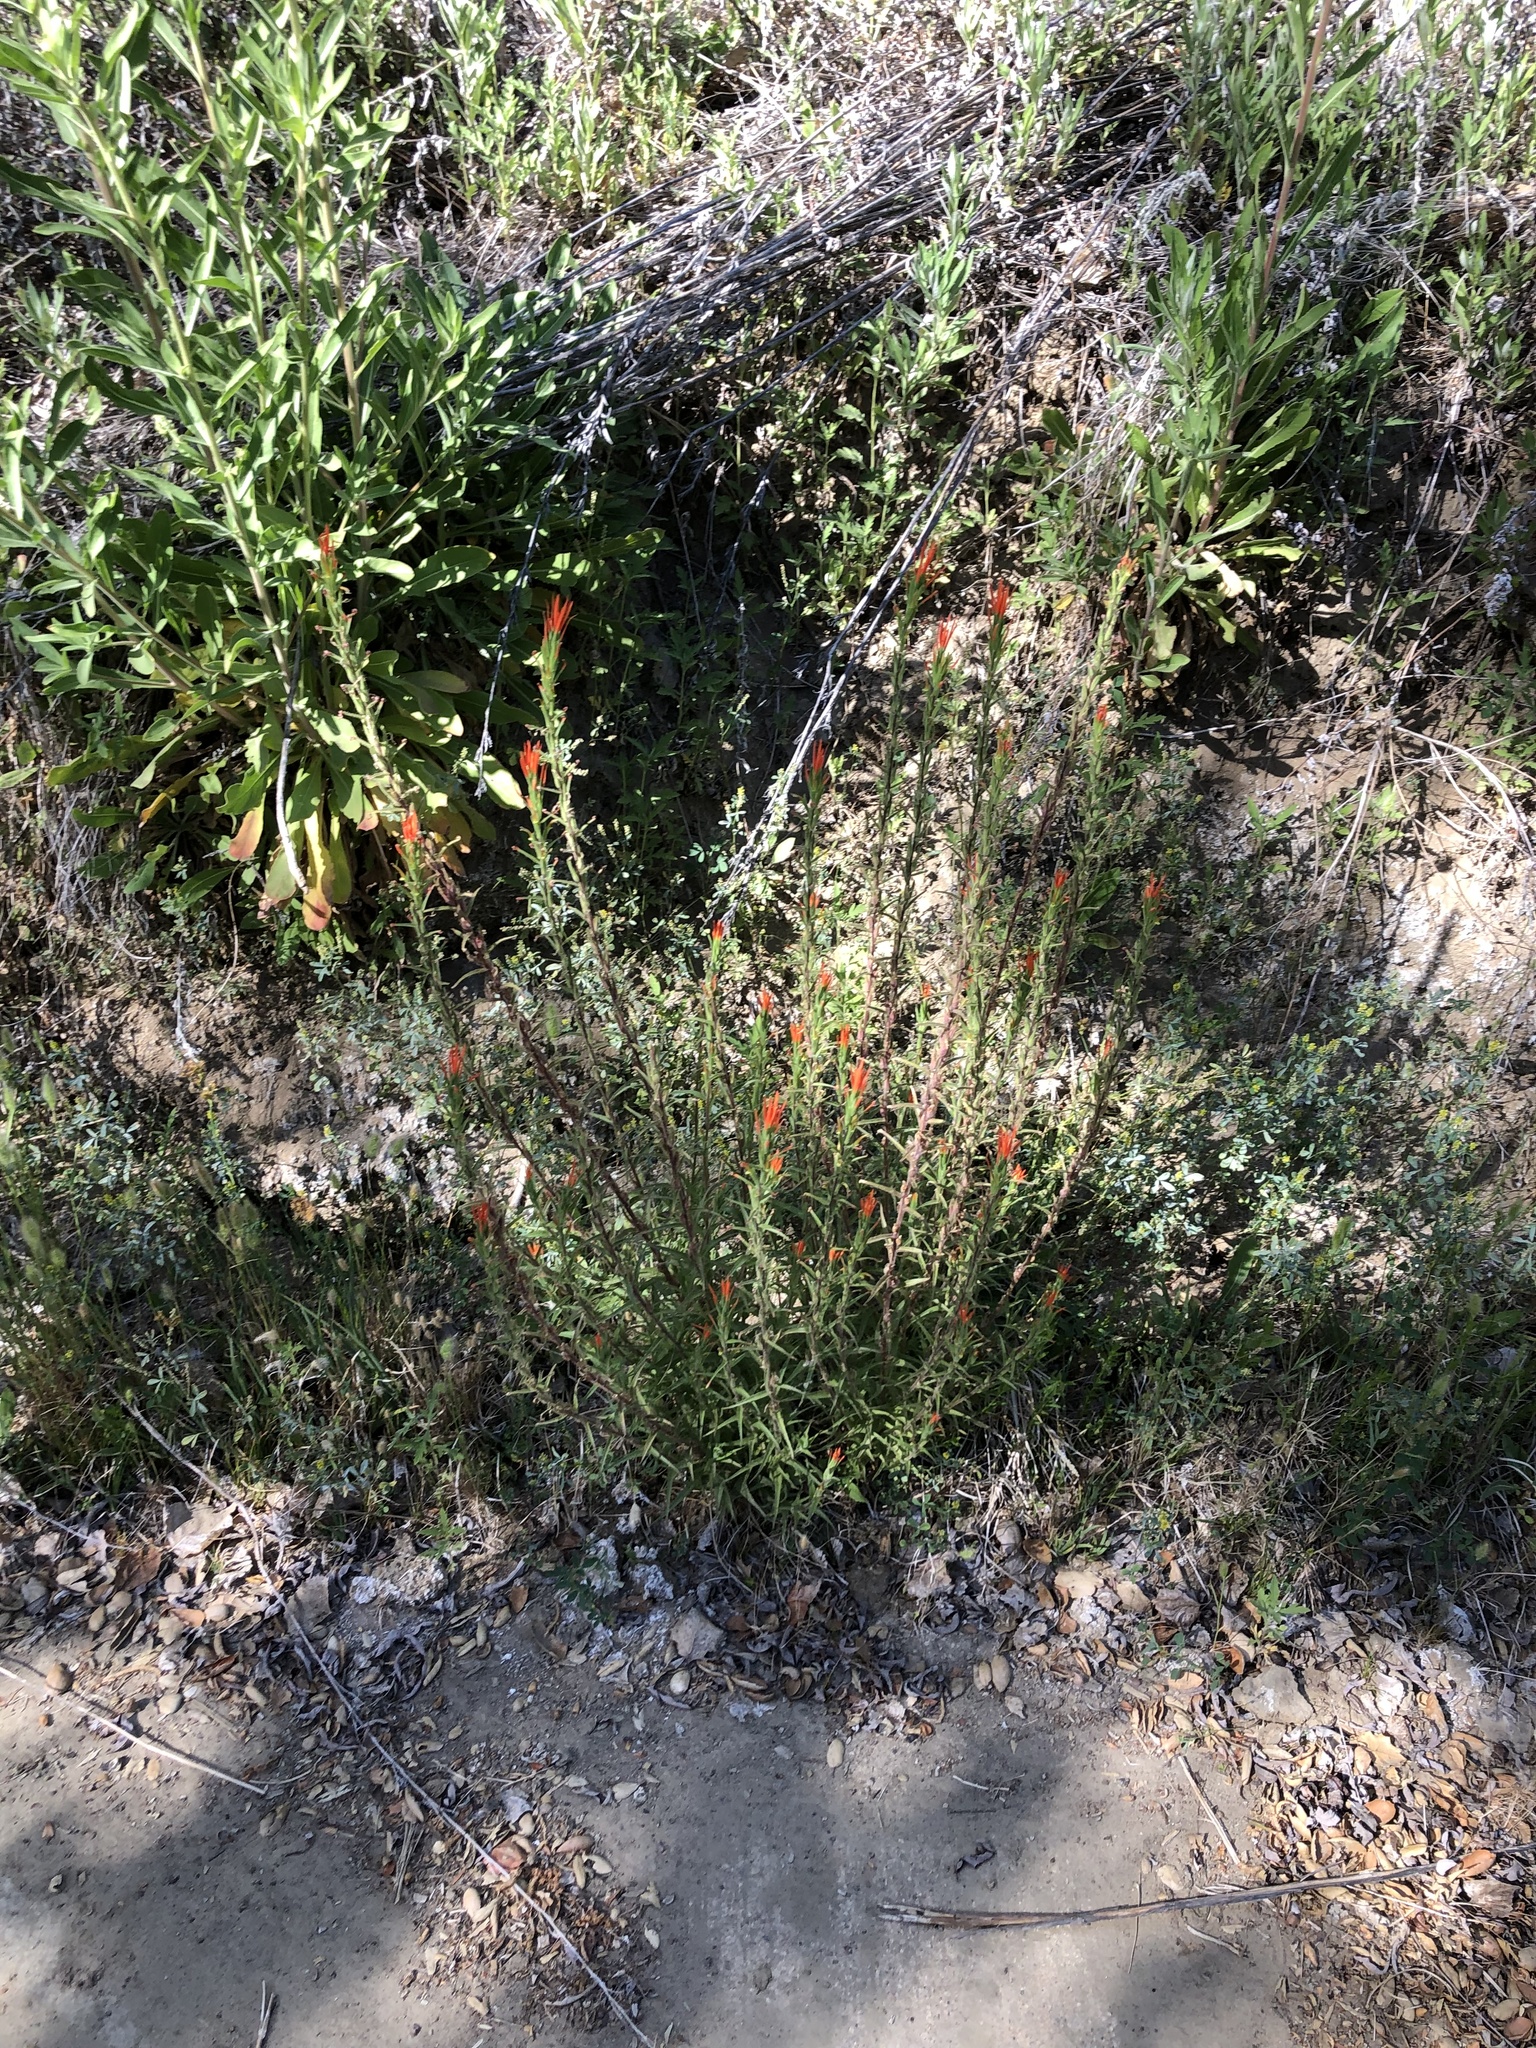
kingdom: Plantae
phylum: Tracheophyta
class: Magnoliopsida
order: Lamiales
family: Orobanchaceae
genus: Castilleja
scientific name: Castilleja minor
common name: Seep paintbrush
